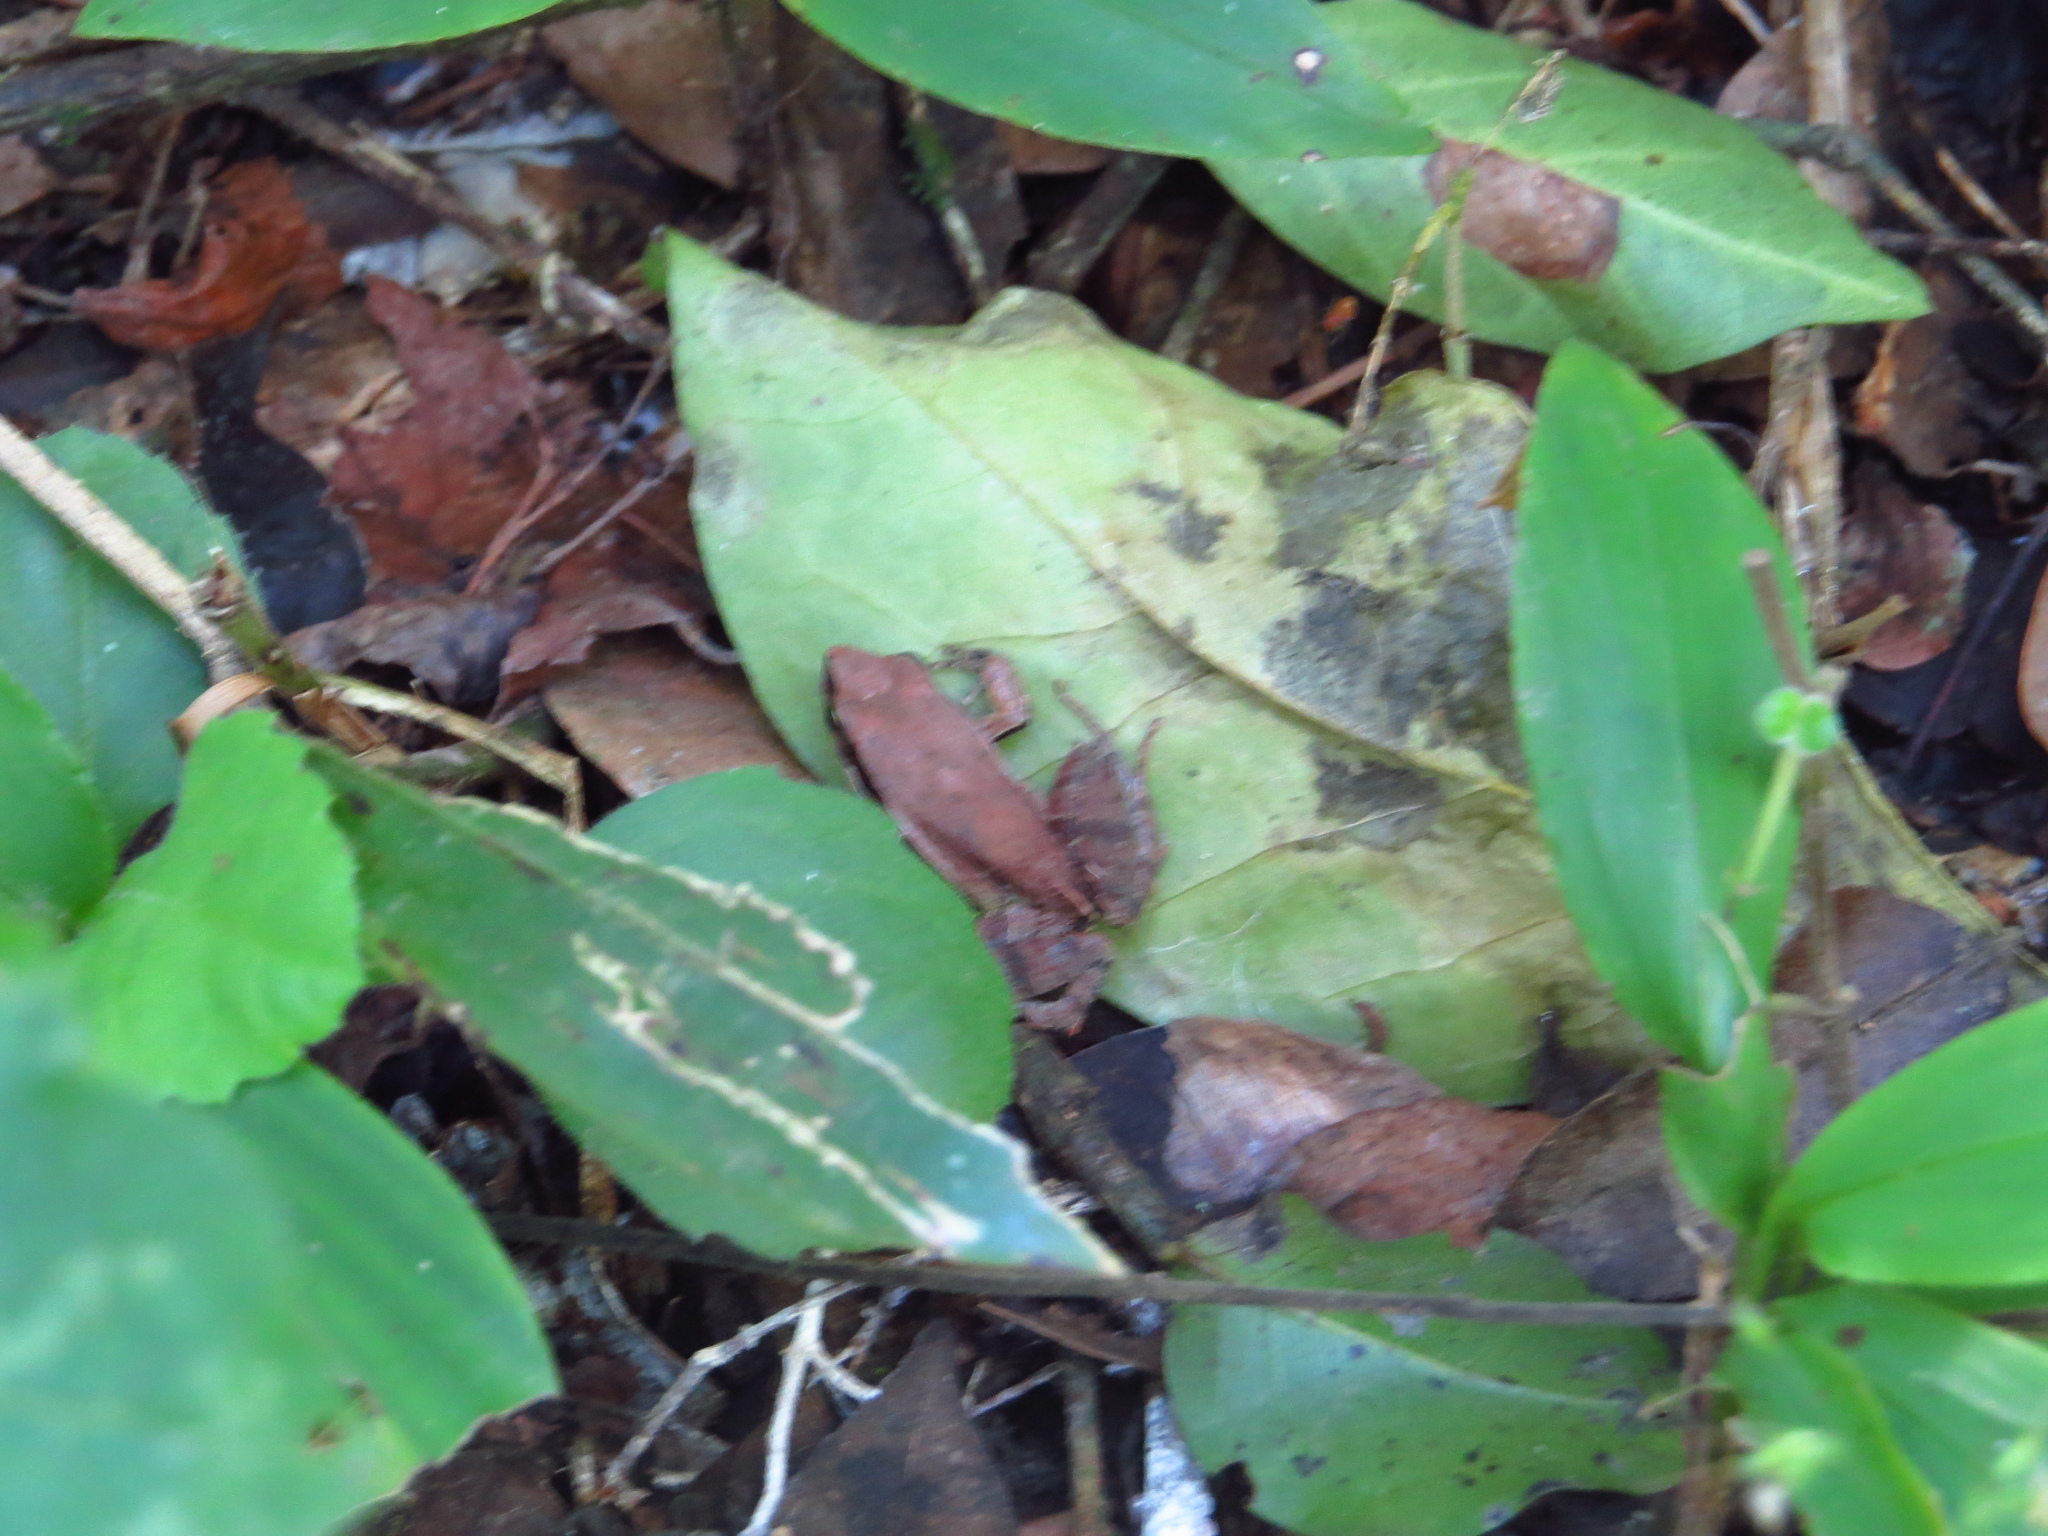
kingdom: Animalia
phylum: Chordata
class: Amphibia
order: Anura
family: Leptodactylidae
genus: Physalaemus
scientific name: Physalaemus albonotatus
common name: Menwig frog
